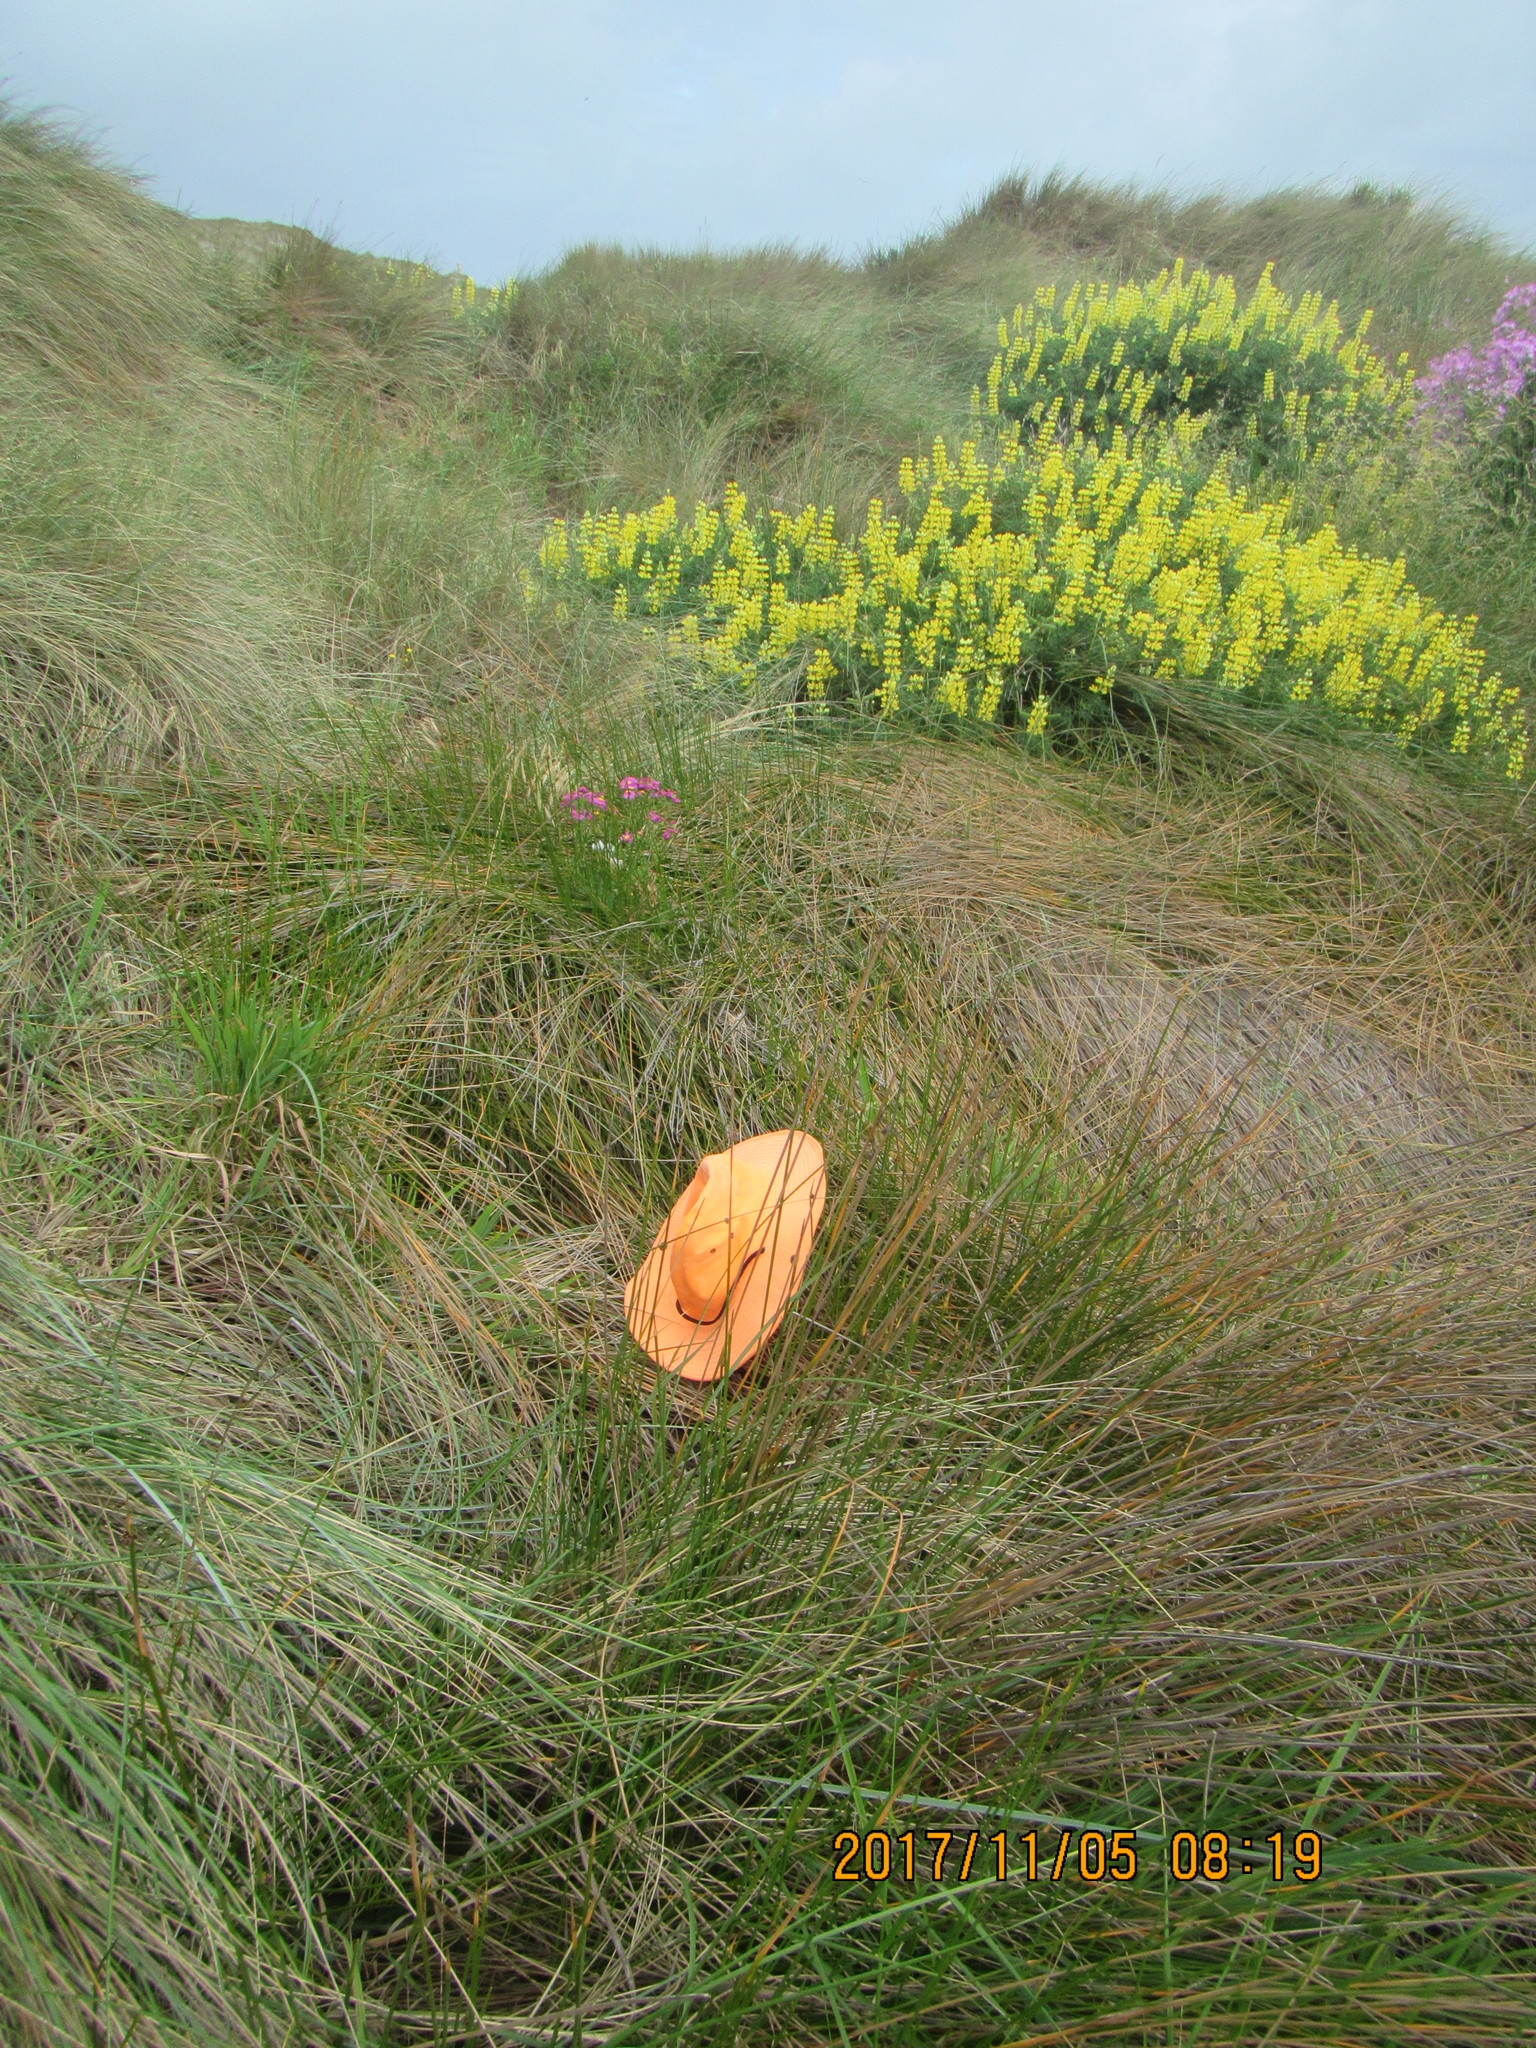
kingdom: Plantae
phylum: Tracheophyta
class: Liliopsida
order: Poales
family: Cyperaceae
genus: Ficinia
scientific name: Ficinia nodosa
